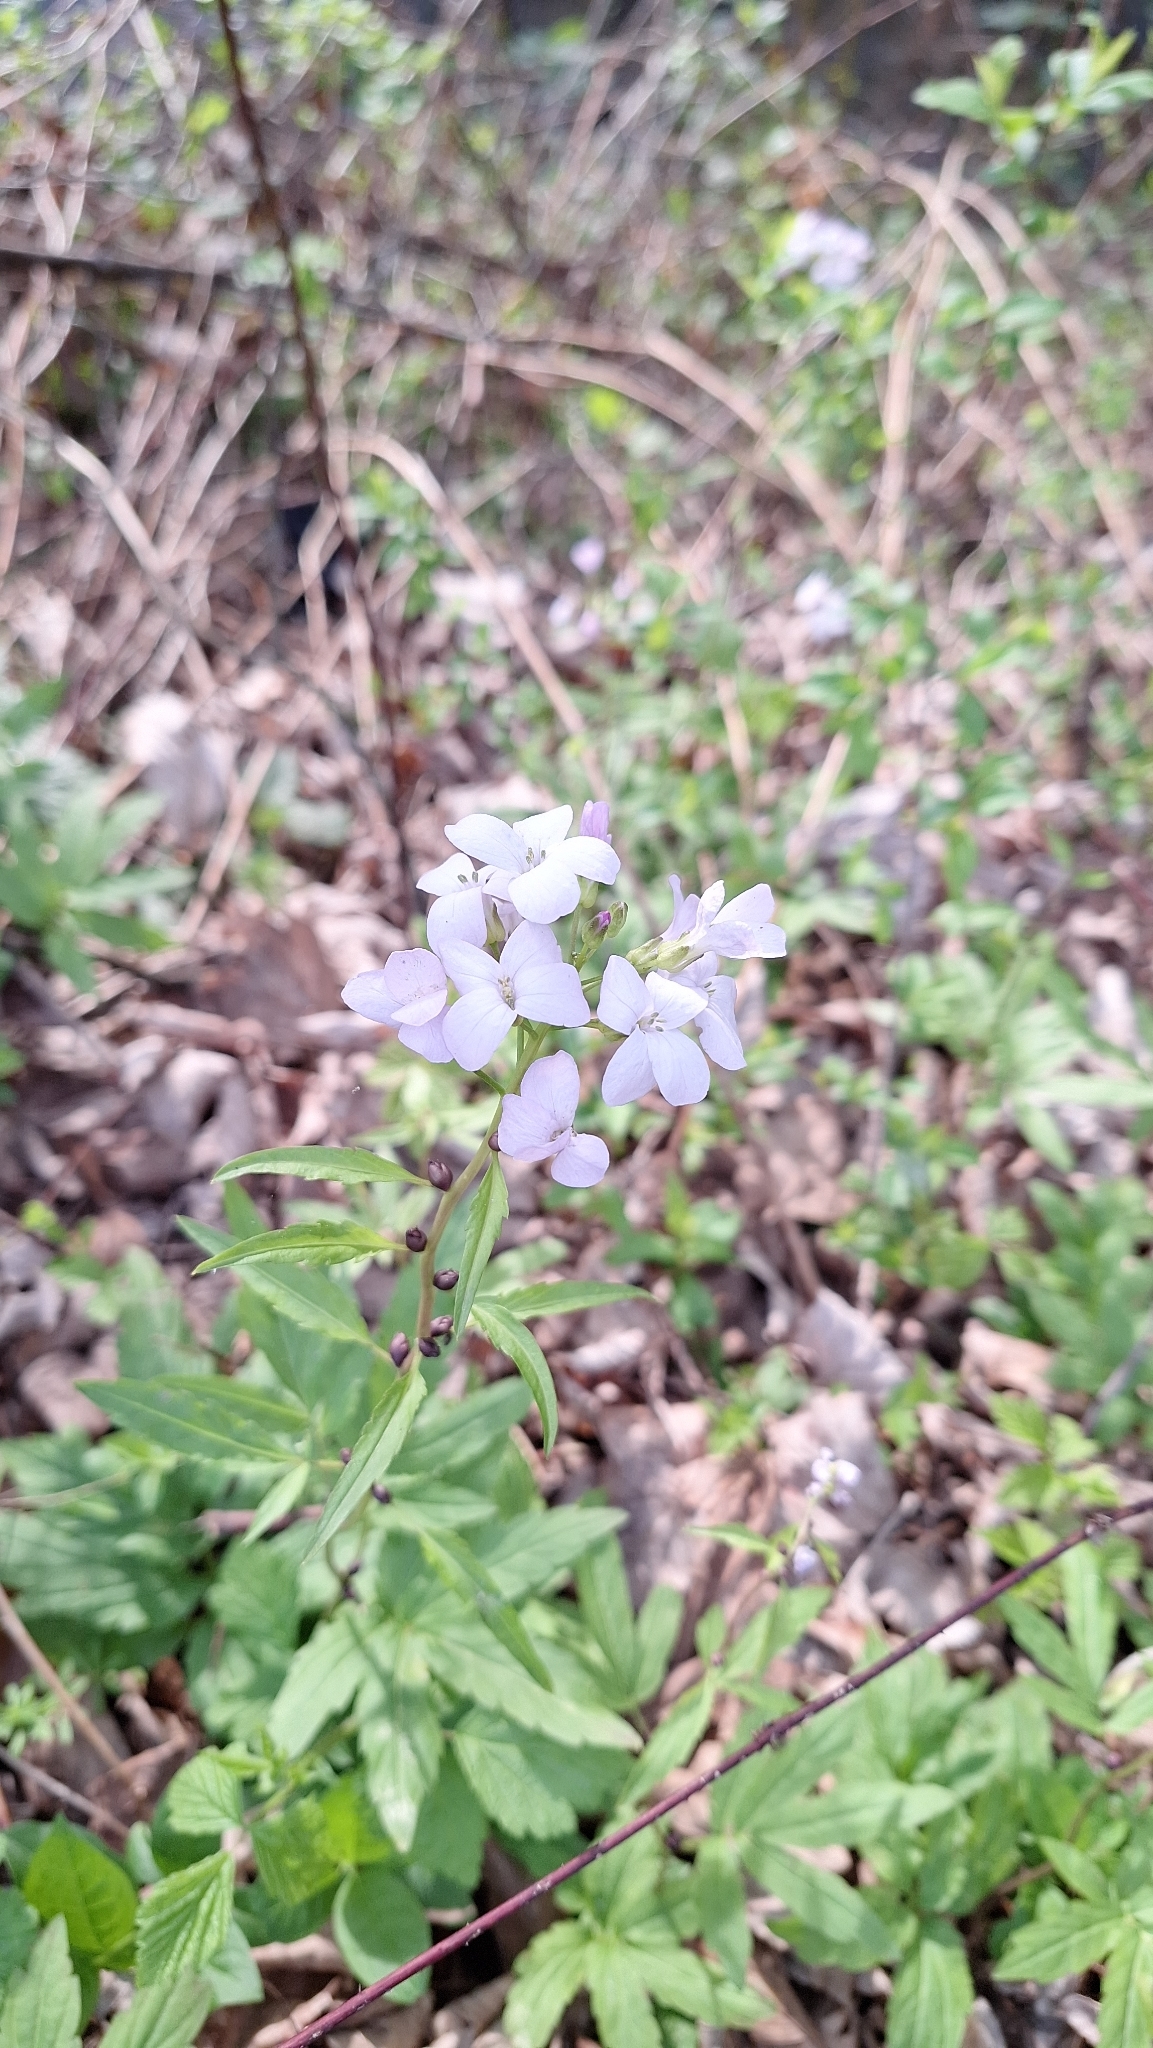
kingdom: Plantae
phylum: Tracheophyta
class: Magnoliopsida
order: Brassicales
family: Brassicaceae
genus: Cardamine
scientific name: Cardamine bulbifera
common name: Coralroot bittercress
